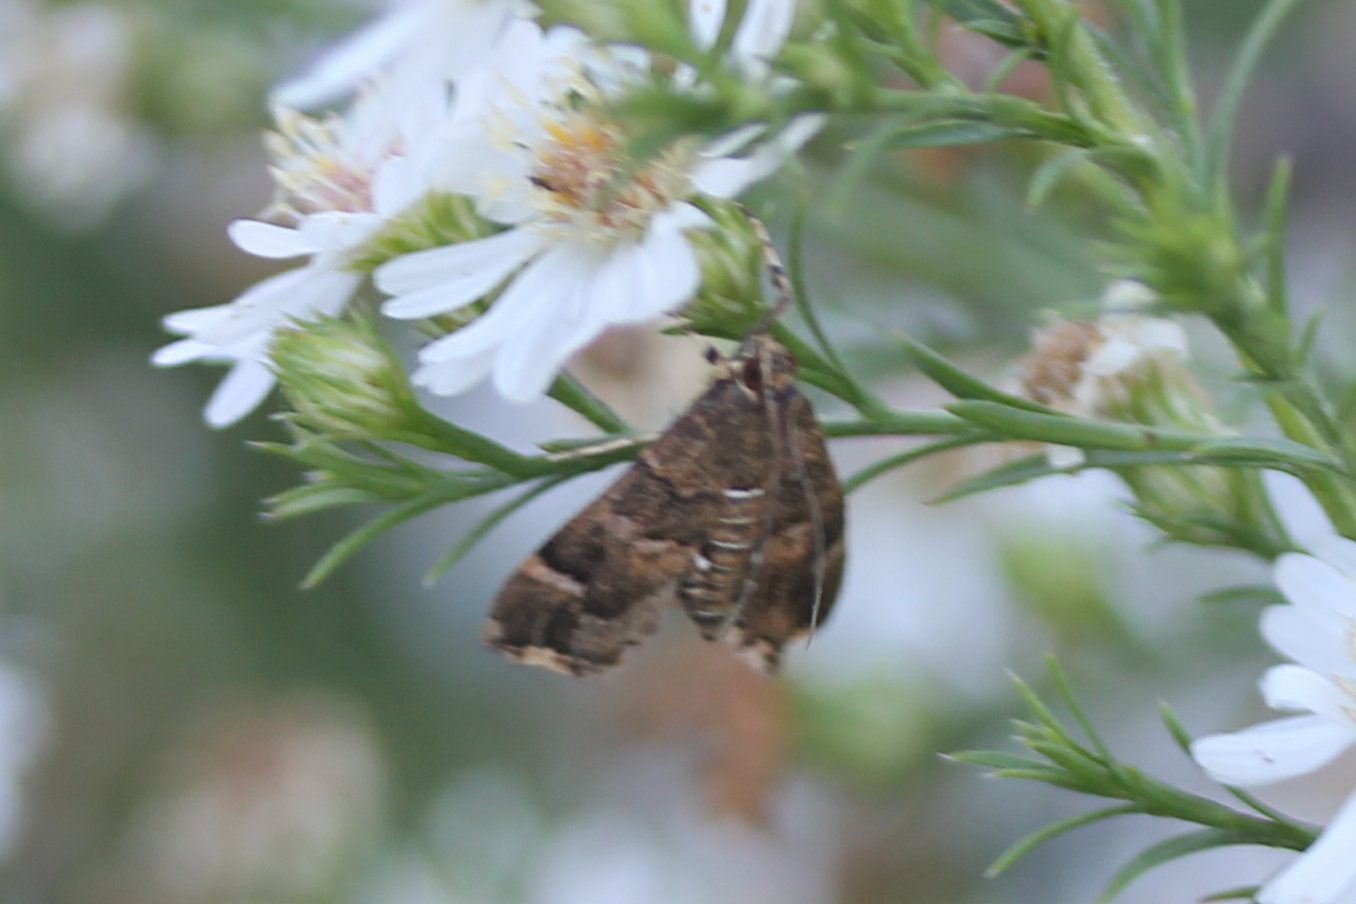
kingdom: Animalia
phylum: Arthropoda
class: Insecta
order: Lepidoptera
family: Crambidae
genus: Hymenia
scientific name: Hymenia perspectalis
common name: Spotted beet webworm
